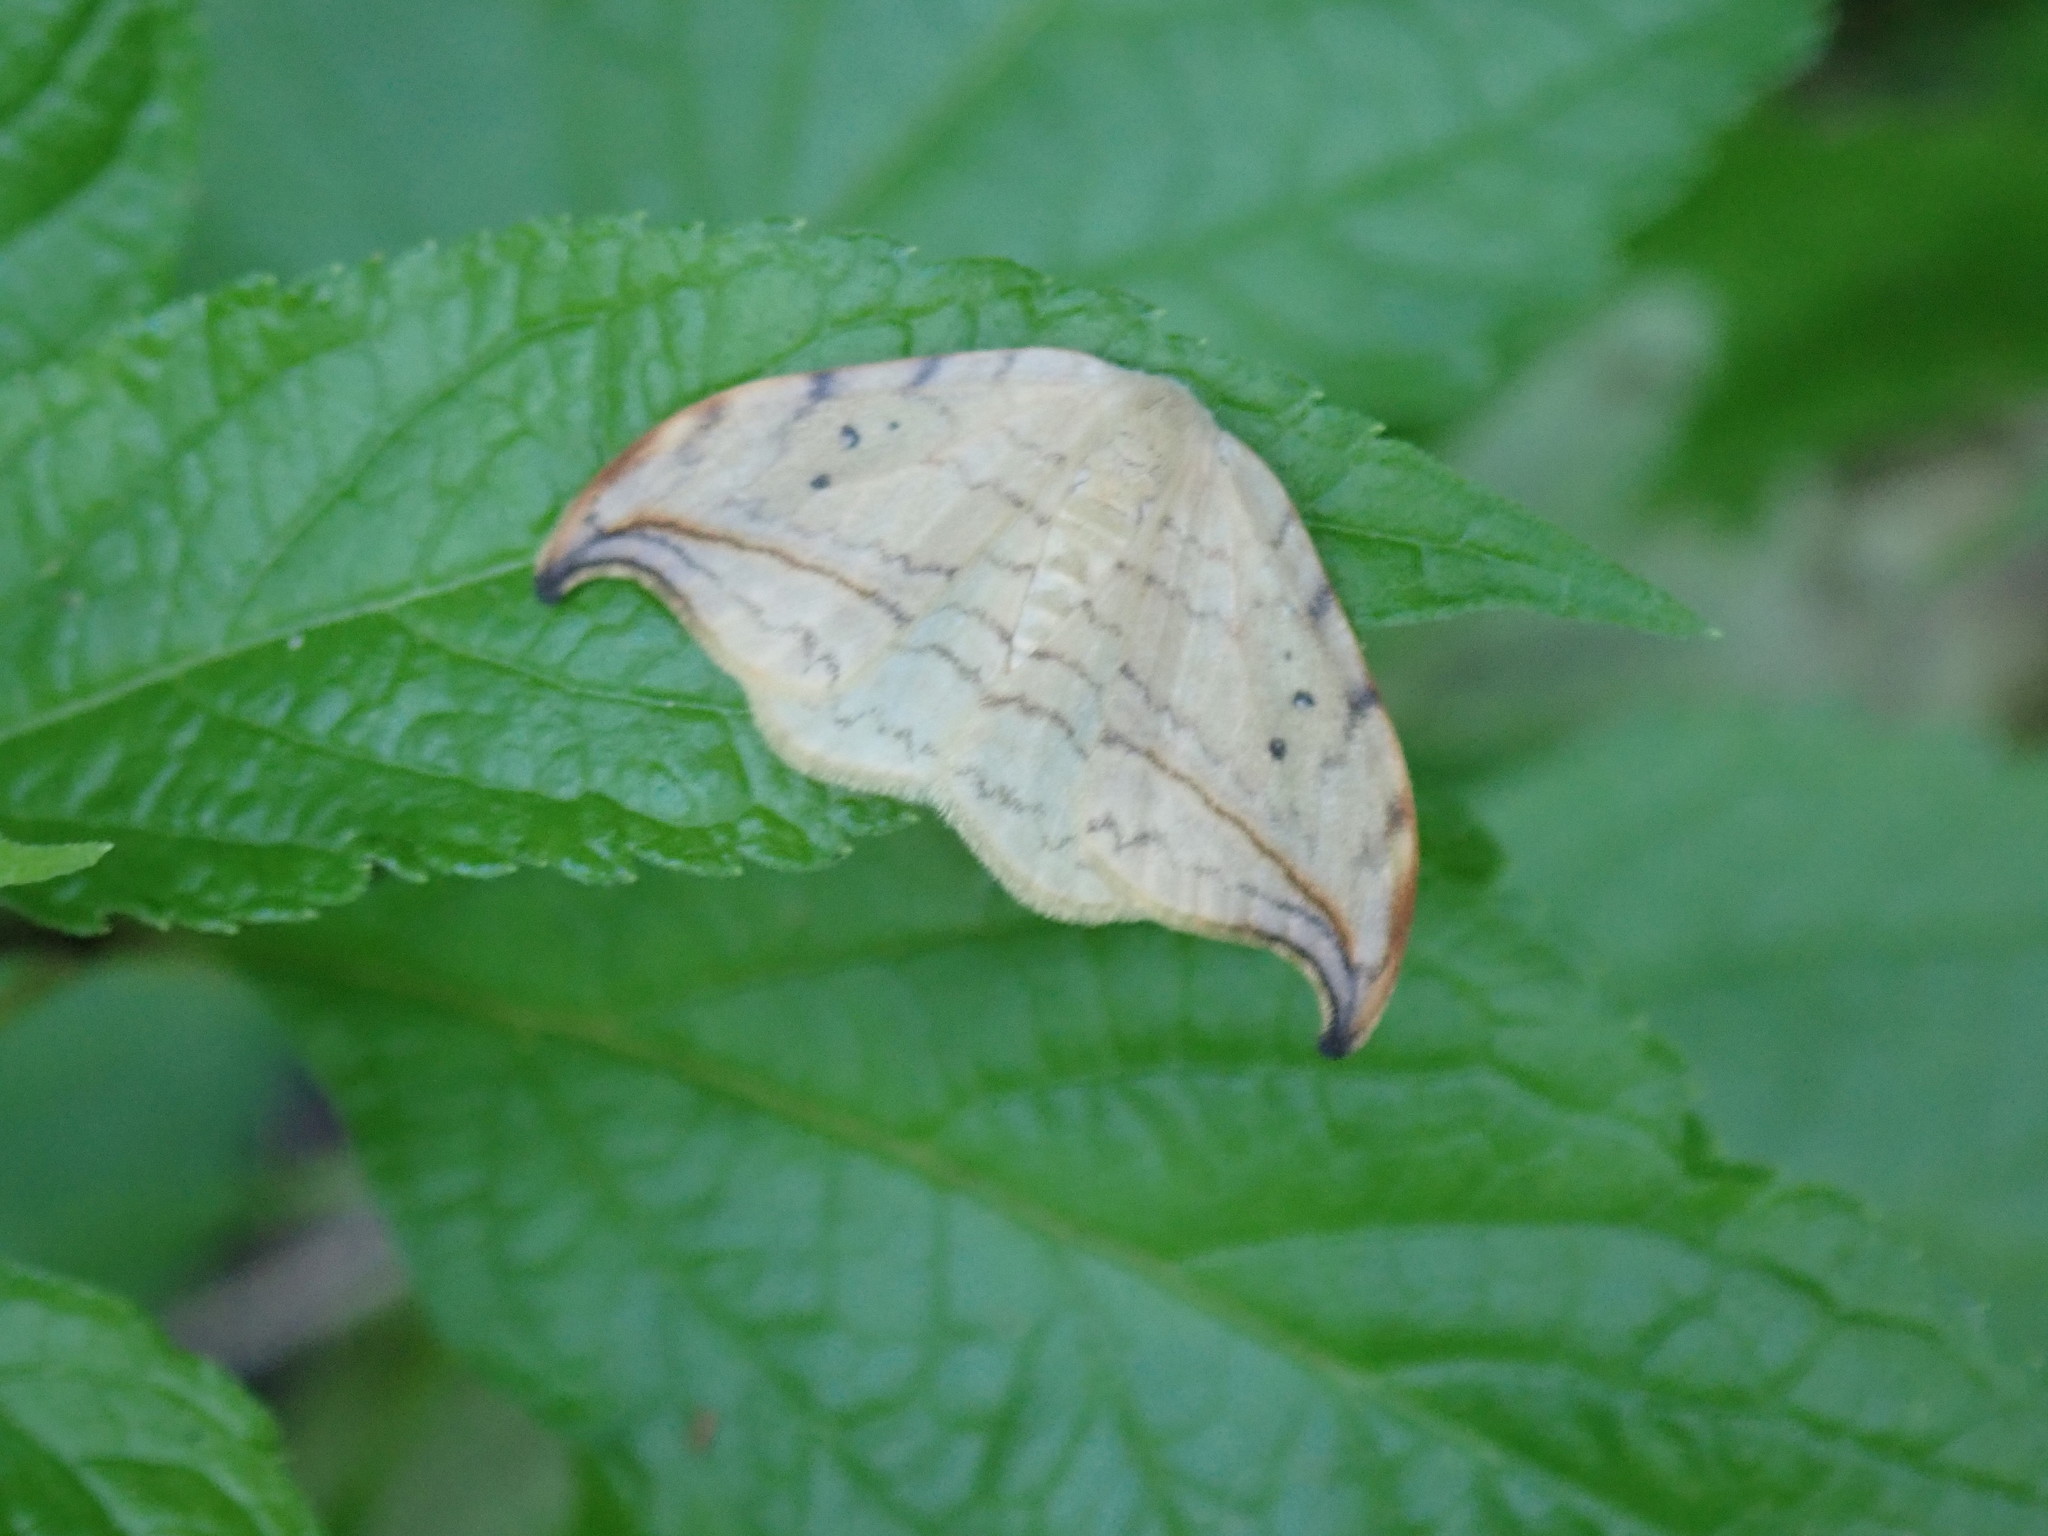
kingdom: Animalia
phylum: Arthropoda
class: Insecta
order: Lepidoptera
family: Drepanidae
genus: Drepana
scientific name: Drepana arcuata
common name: Arched hooktip moth
